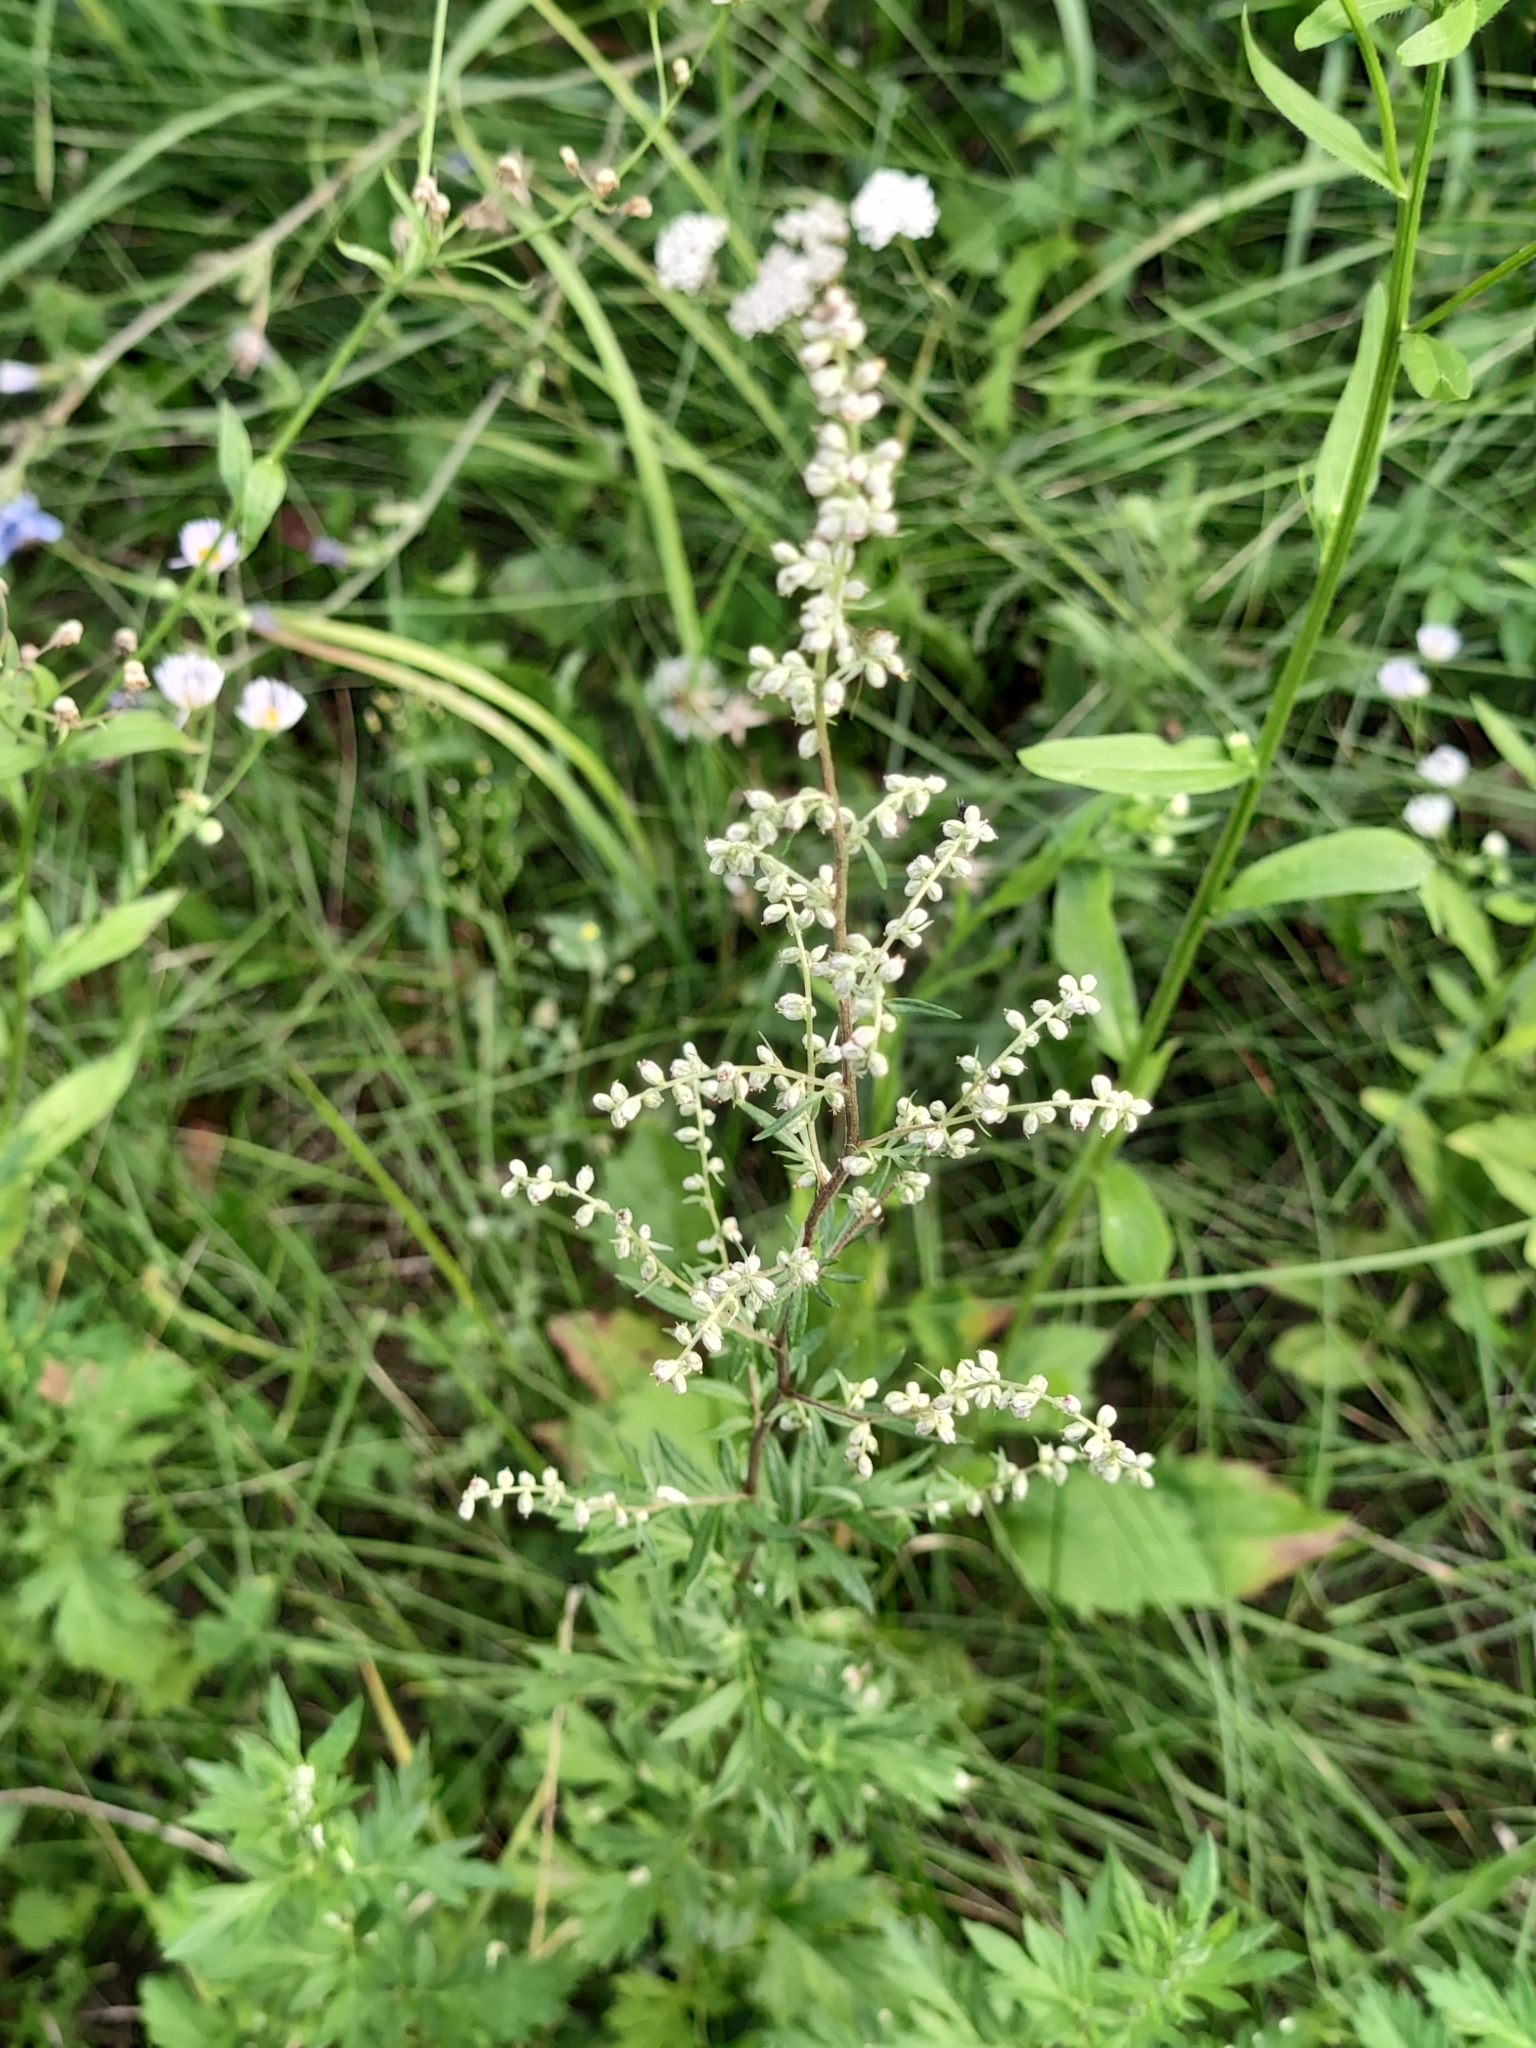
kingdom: Plantae
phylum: Tracheophyta
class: Magnoliopsida
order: Asterales
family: Asteraceae
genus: Artemisia
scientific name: Artemisia vulgaris
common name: Mugwort
